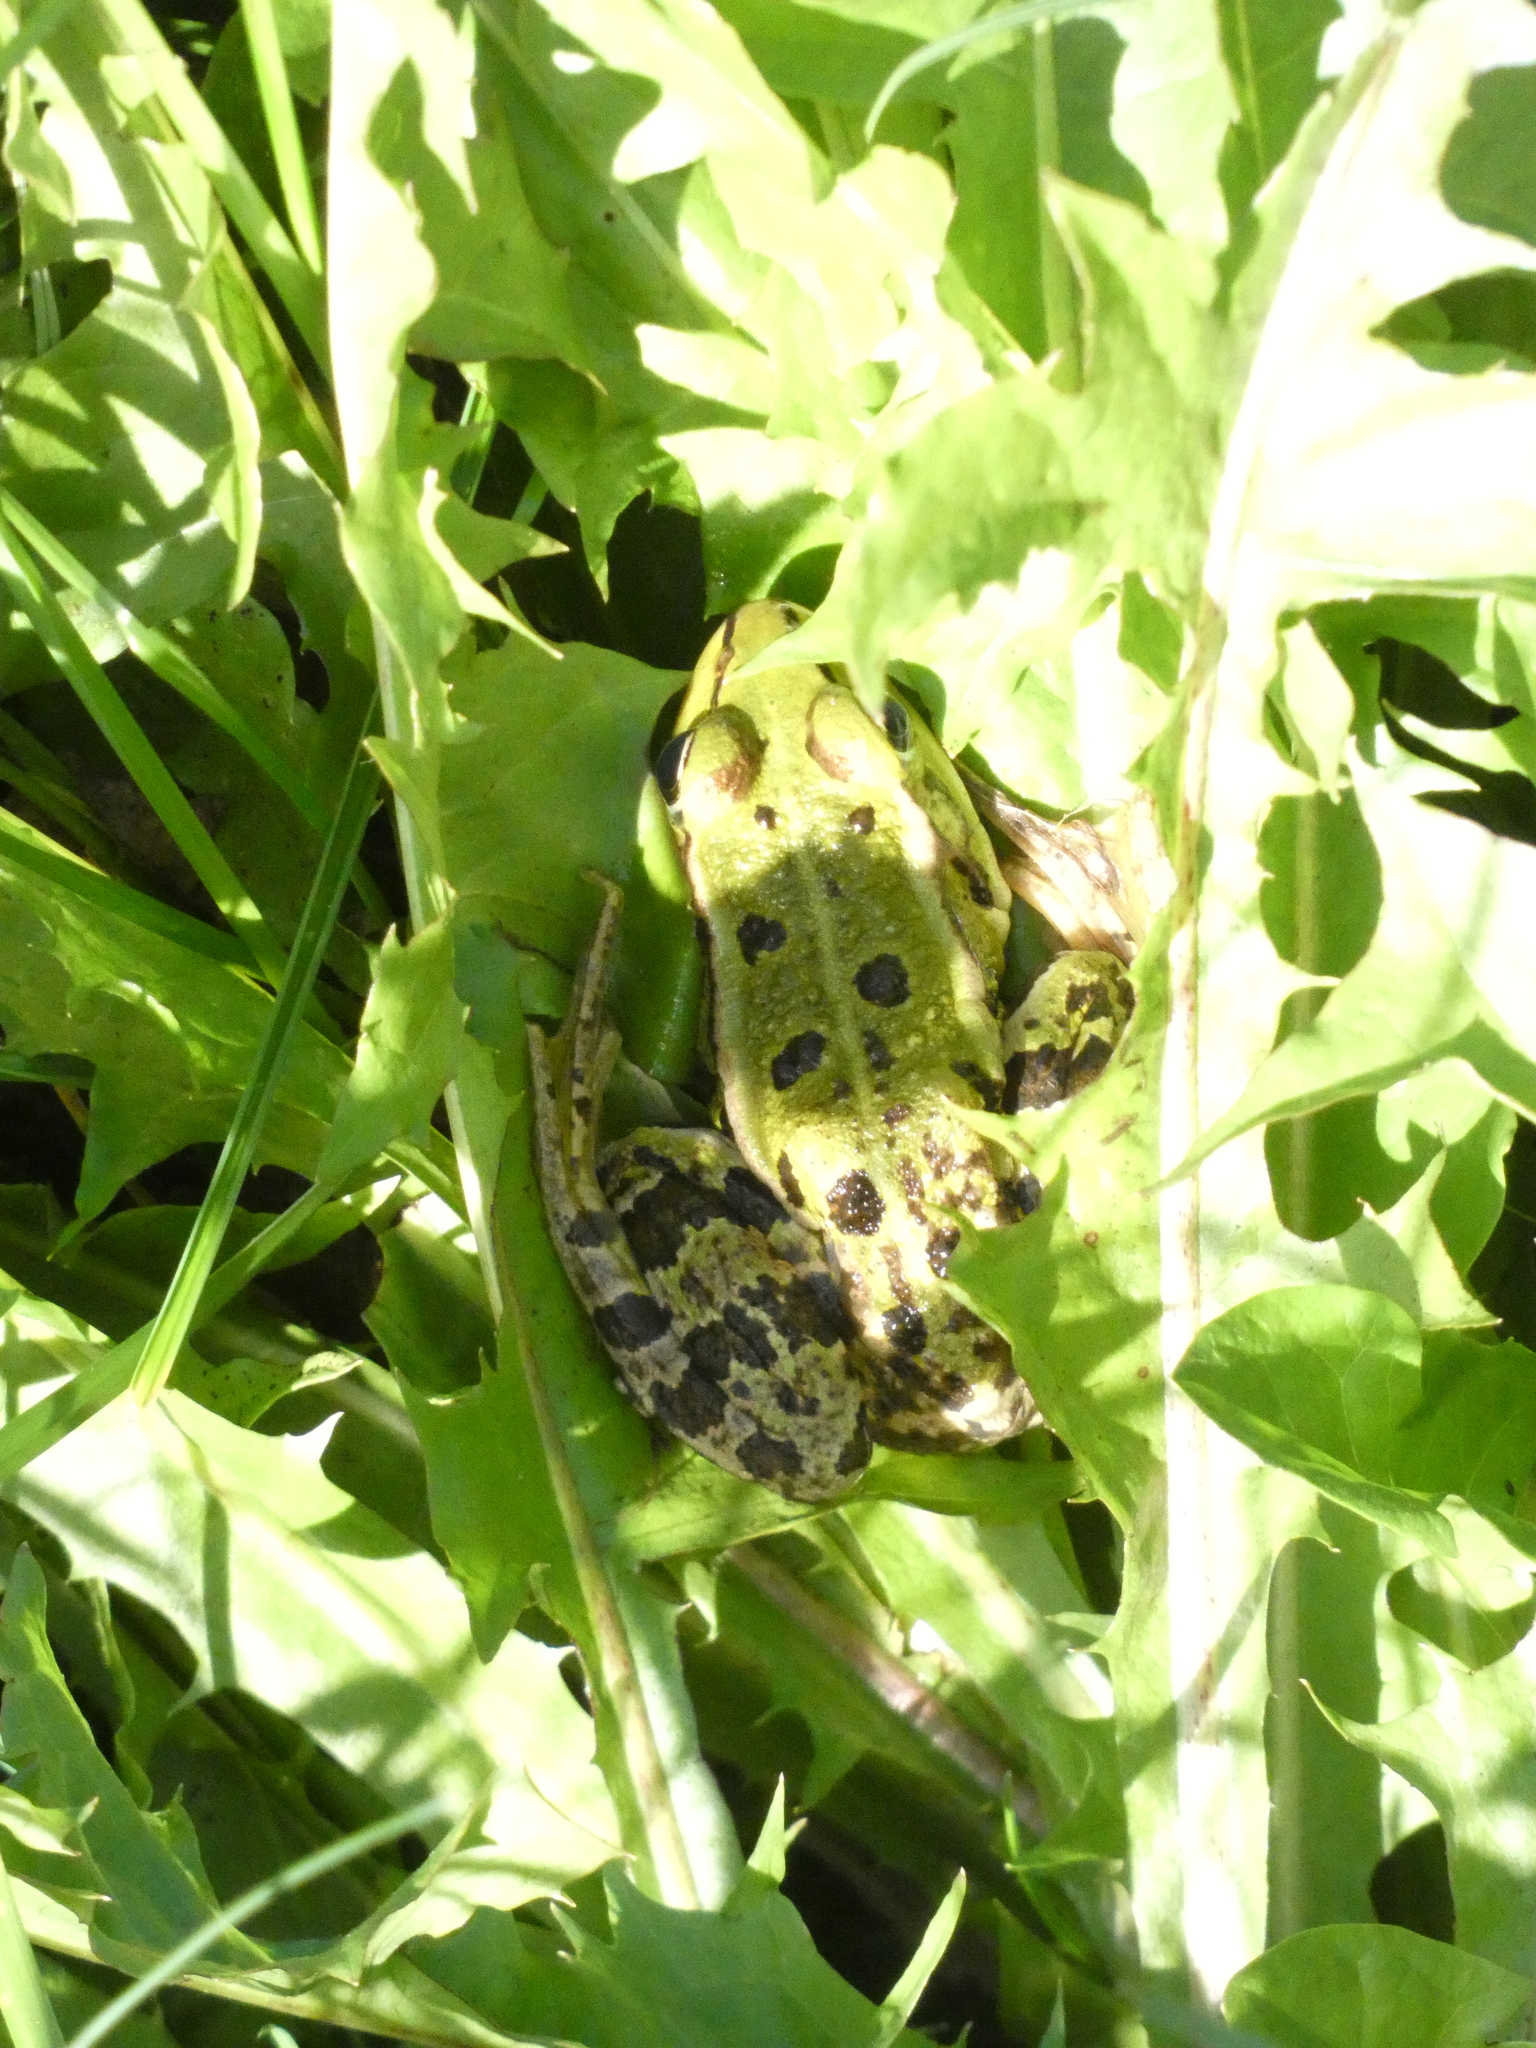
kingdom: Animalia
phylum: Chordata
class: Amphibia
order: Anura
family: Ranidae
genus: Pelophylax
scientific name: Pelophylax ridibundus
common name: Marsh frog
